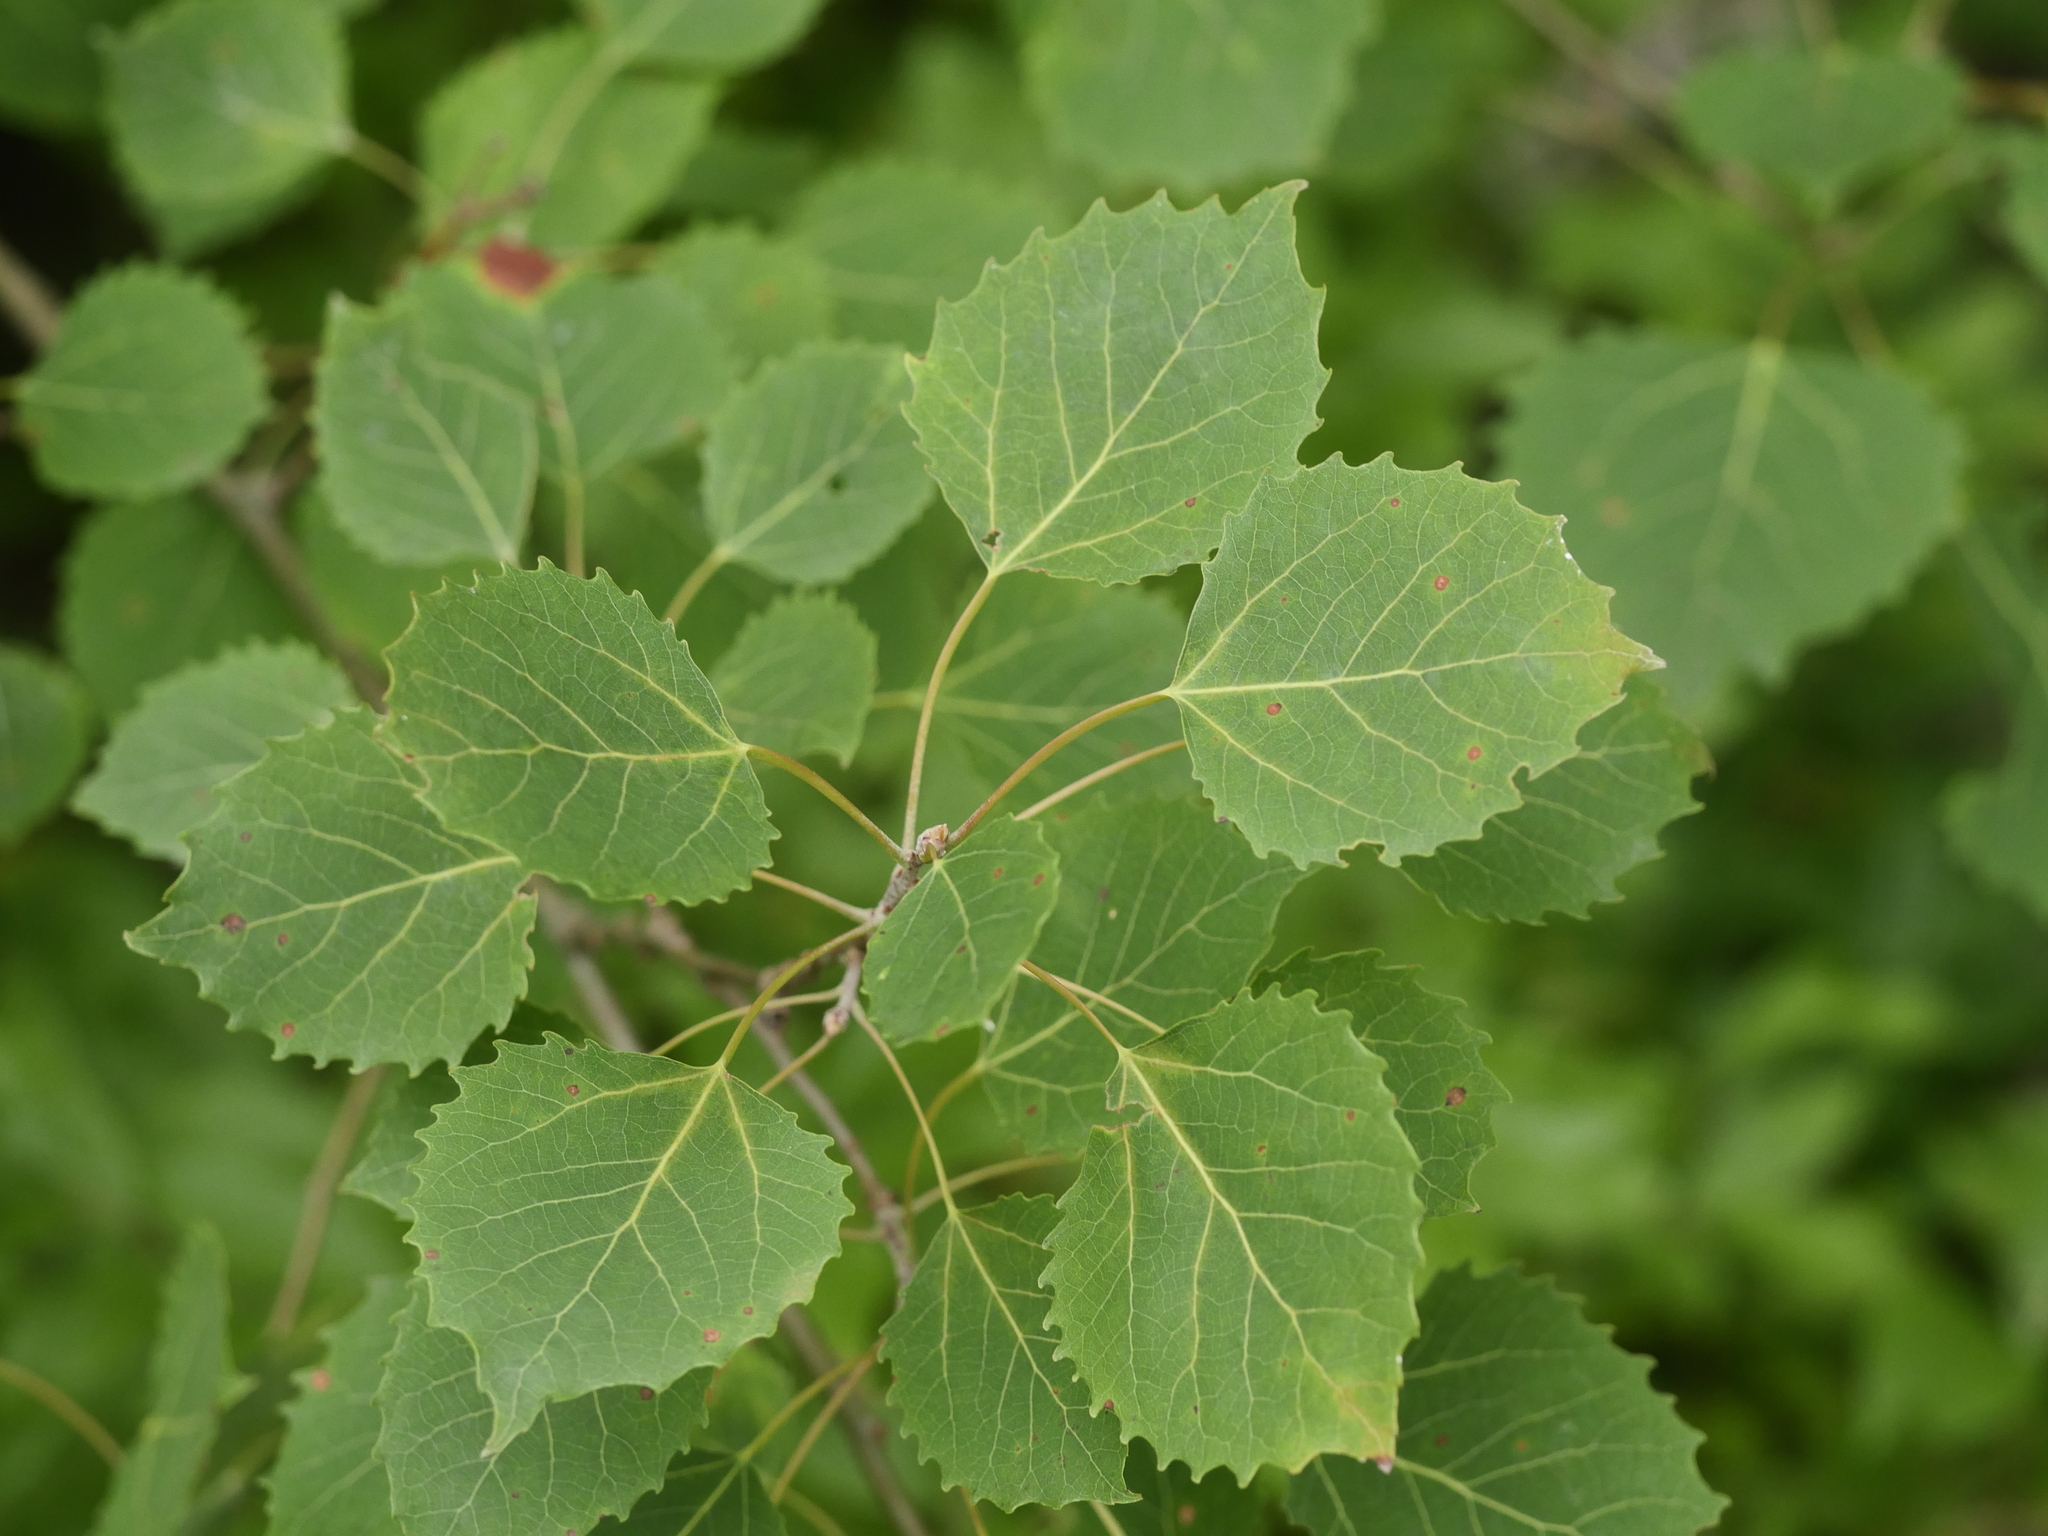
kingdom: Plantae
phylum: Tracheophyta
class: Magnoliopsida
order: Malpighiales
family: Salicaceae
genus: Populus
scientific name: Populus grandidentata
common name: Bigtooth aspen
